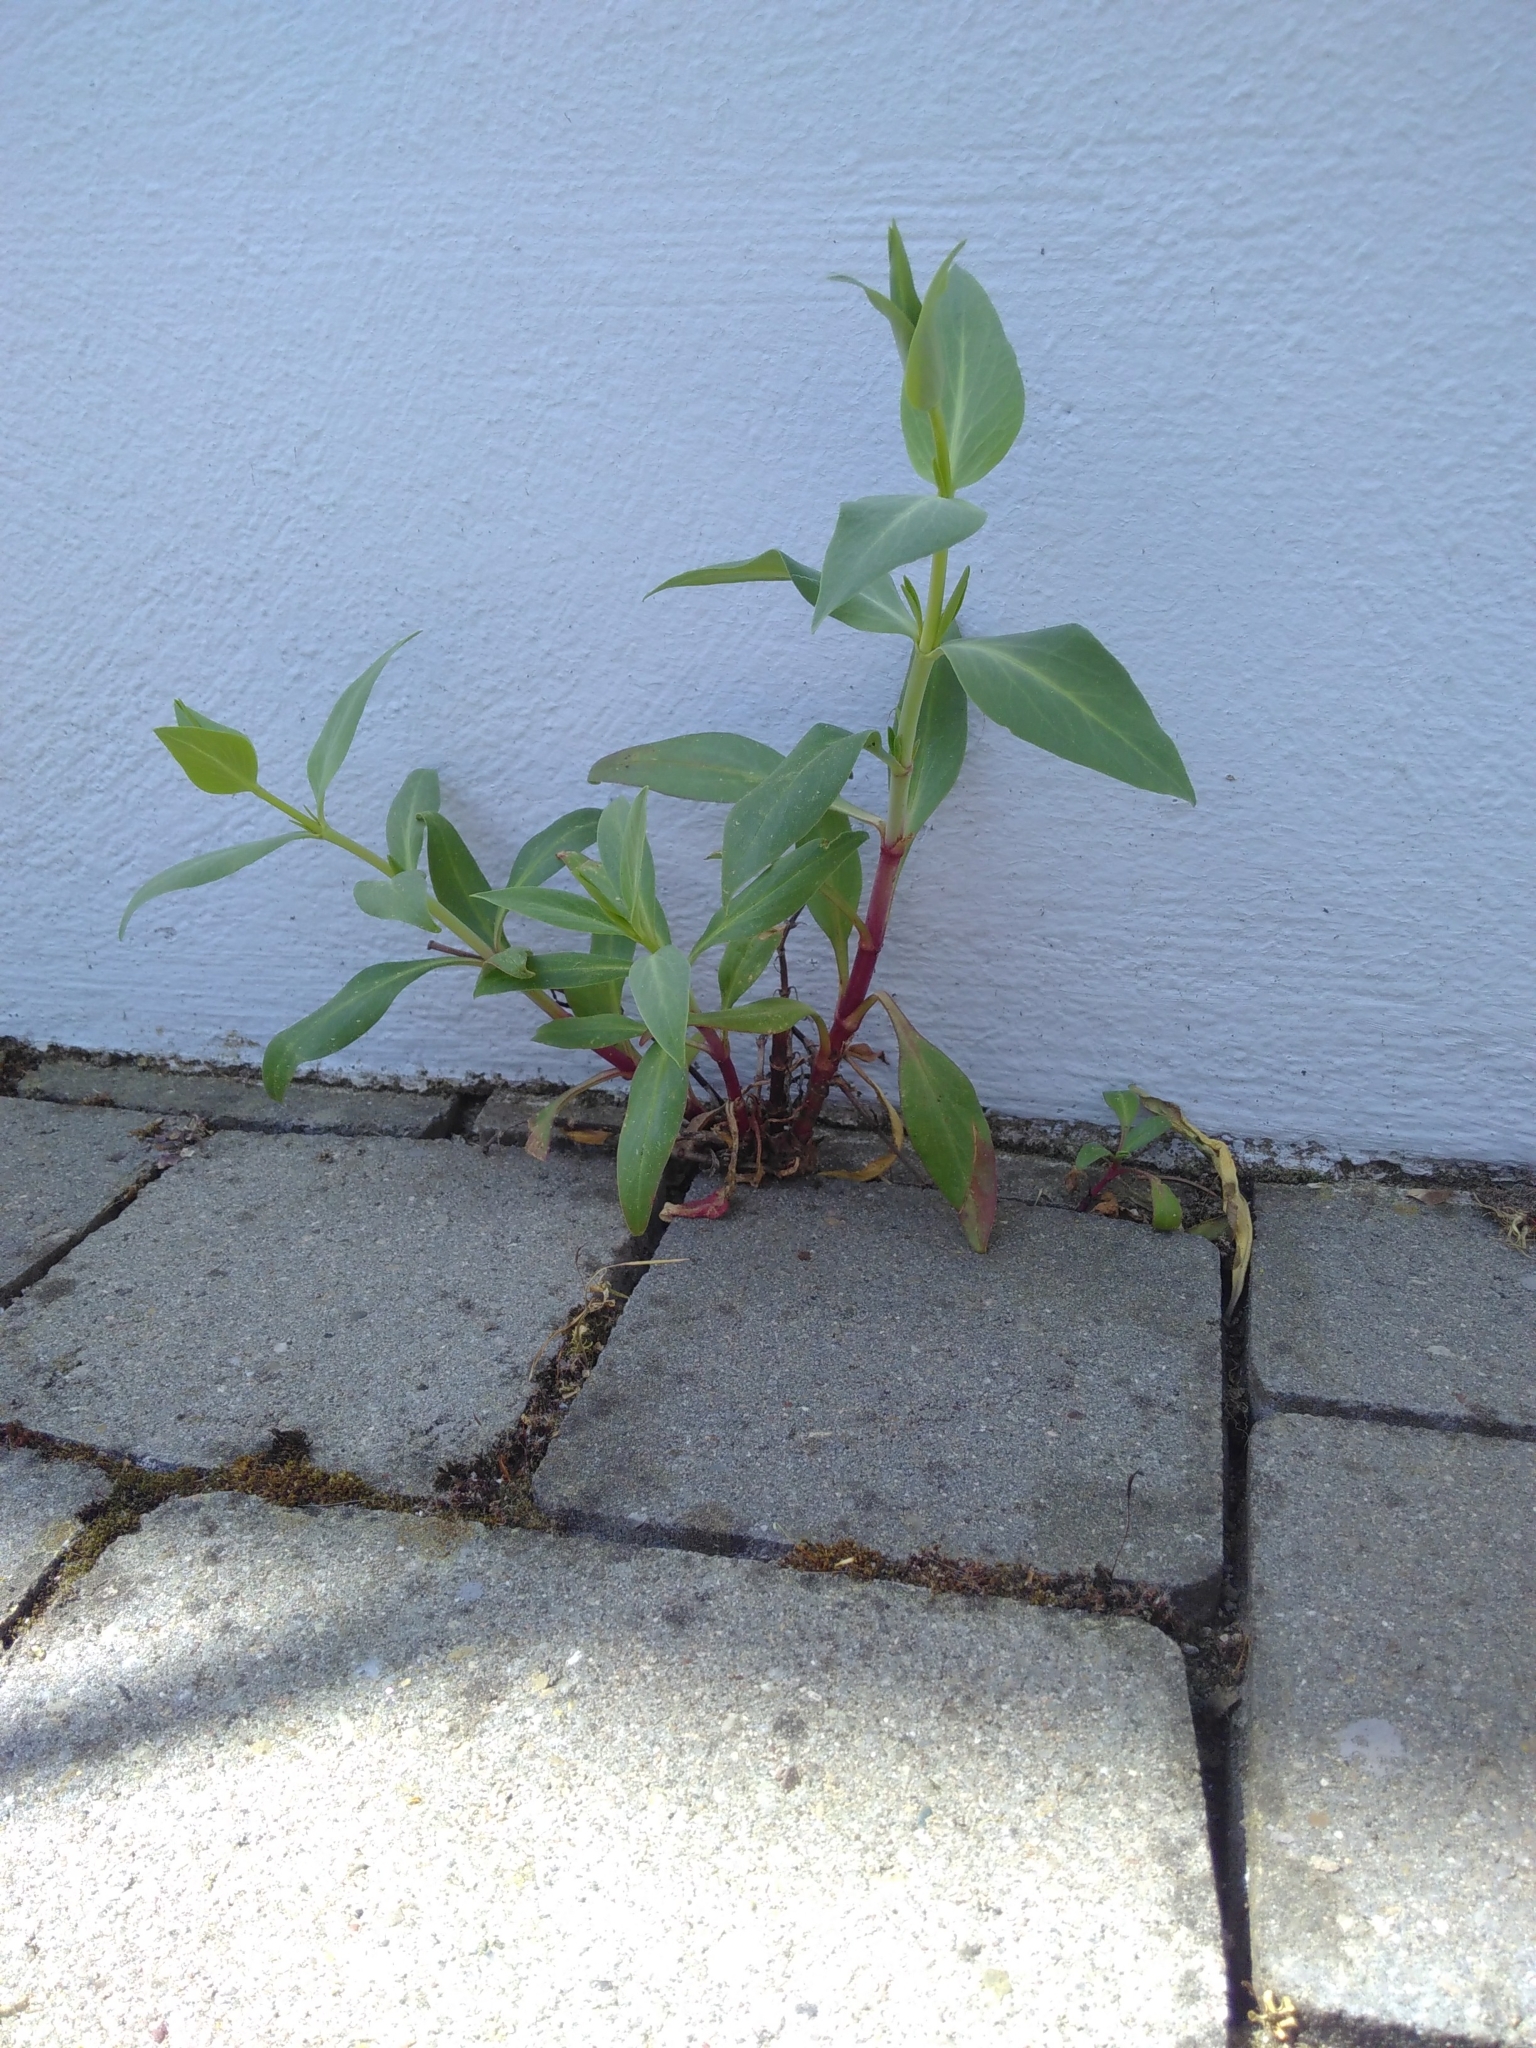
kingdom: Plantae
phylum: Tracheophyta
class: Magnoliopsida
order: Dipsacales
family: Caprifoliaceae
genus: Centranthus
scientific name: Centranthus ruber
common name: Red valerian
